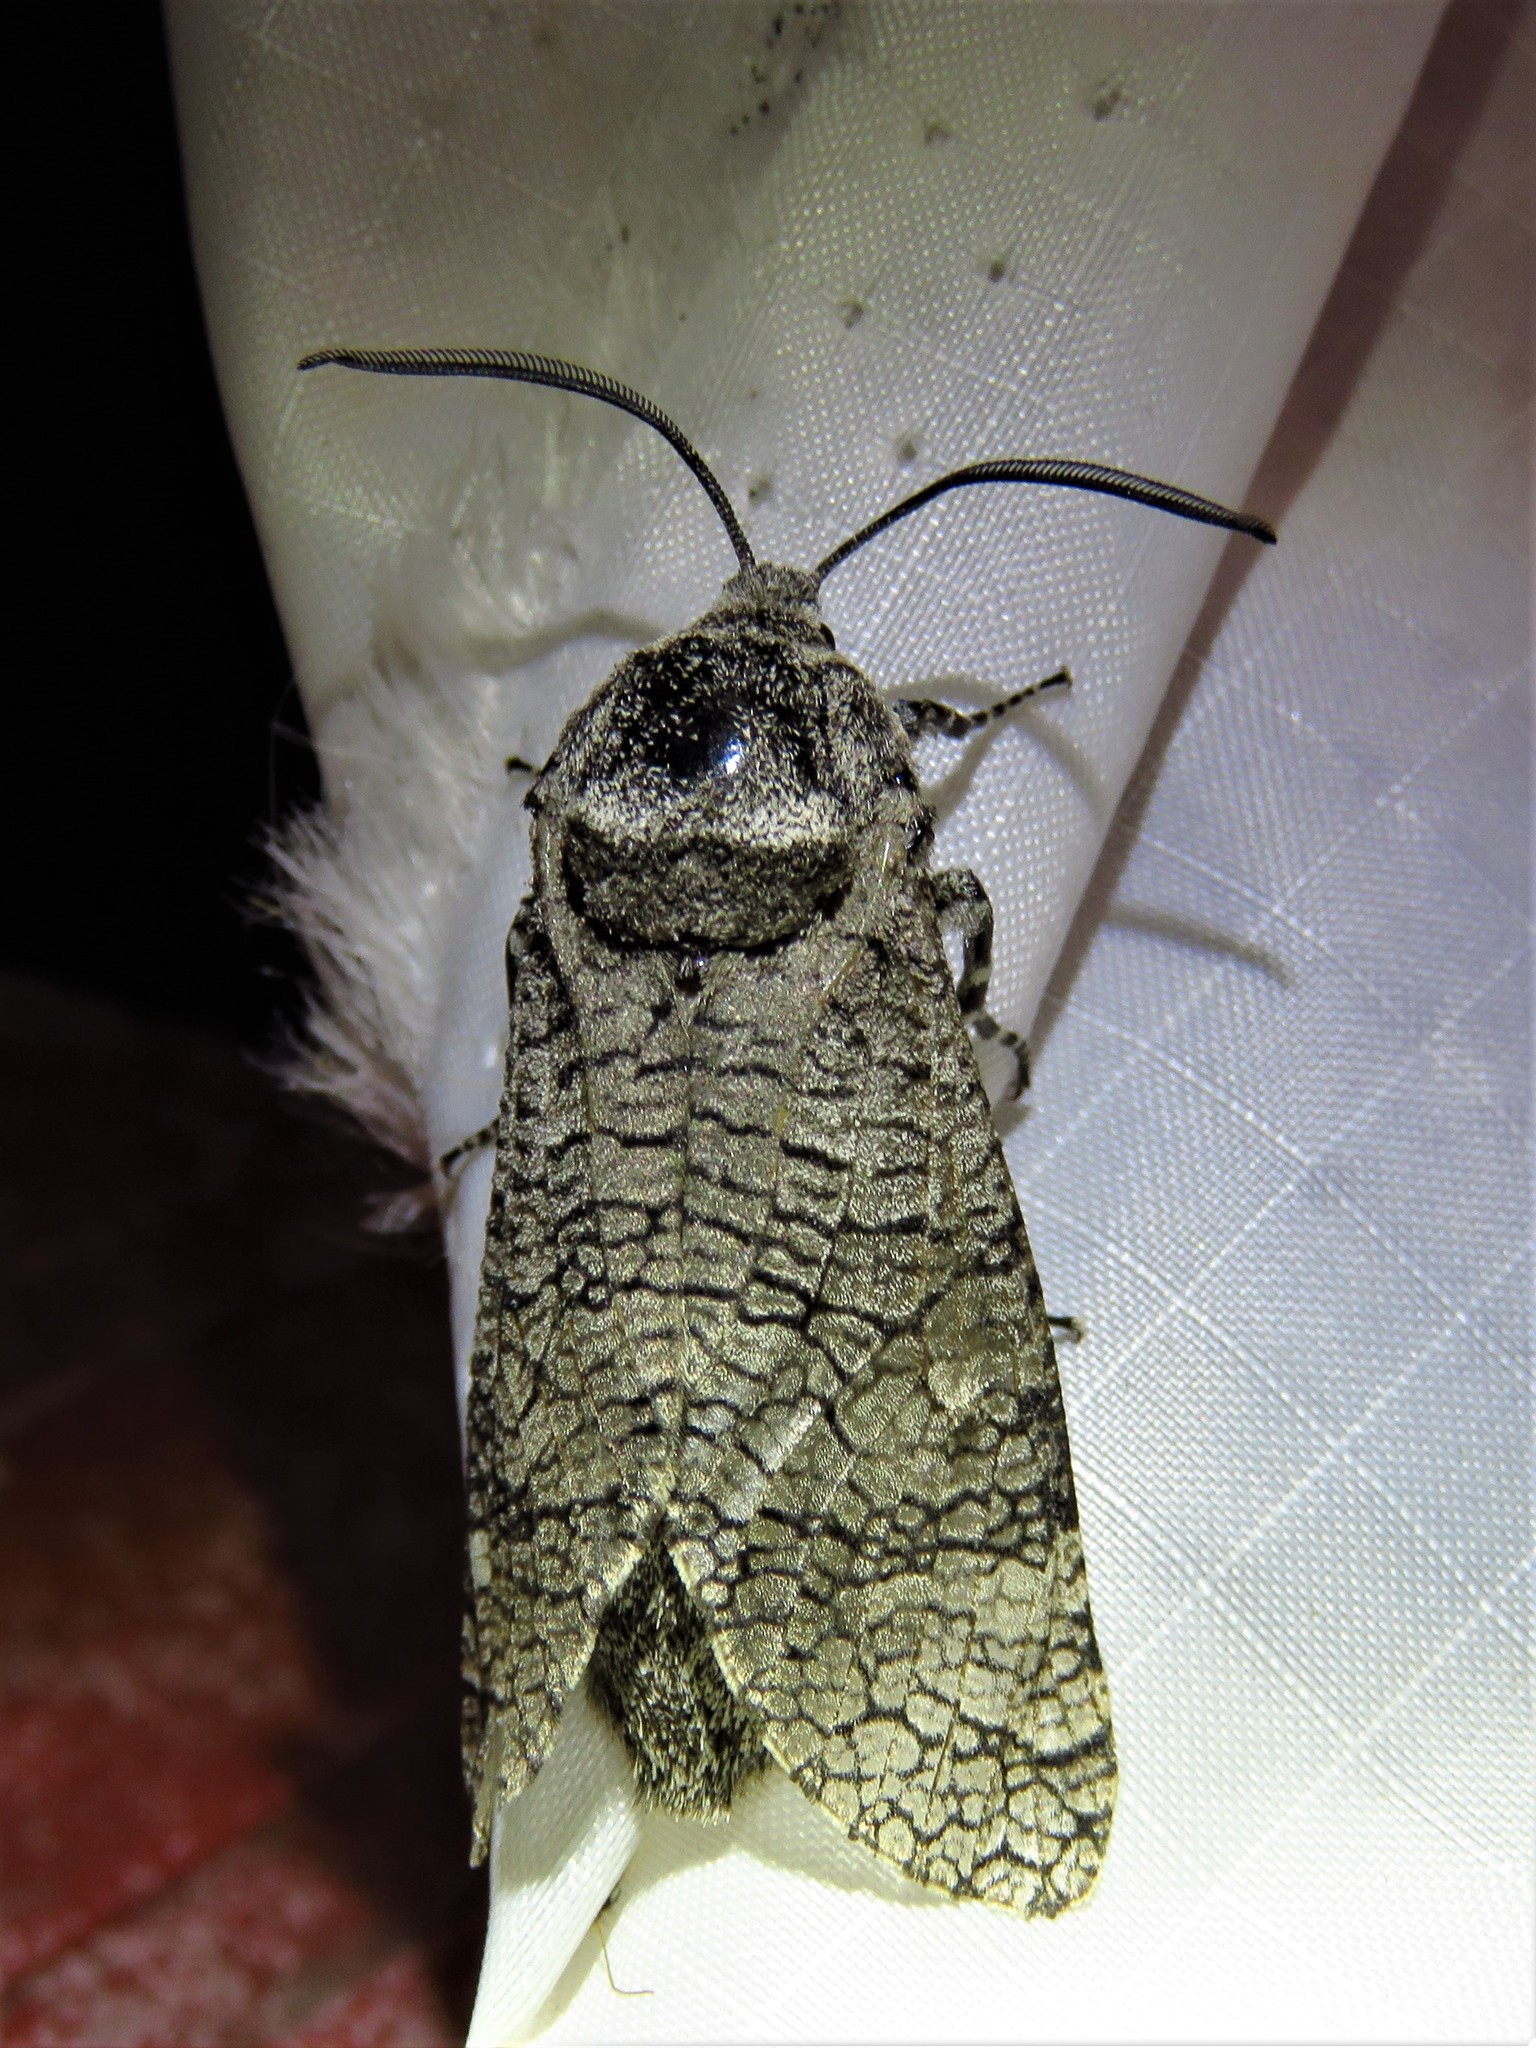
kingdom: Animalia
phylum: Arthropoda
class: Insecta
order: Lepidoptera
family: Cossidae
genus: Prionoxystus
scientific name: Prionoxystus macmurtrei
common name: Little carpenterworm
